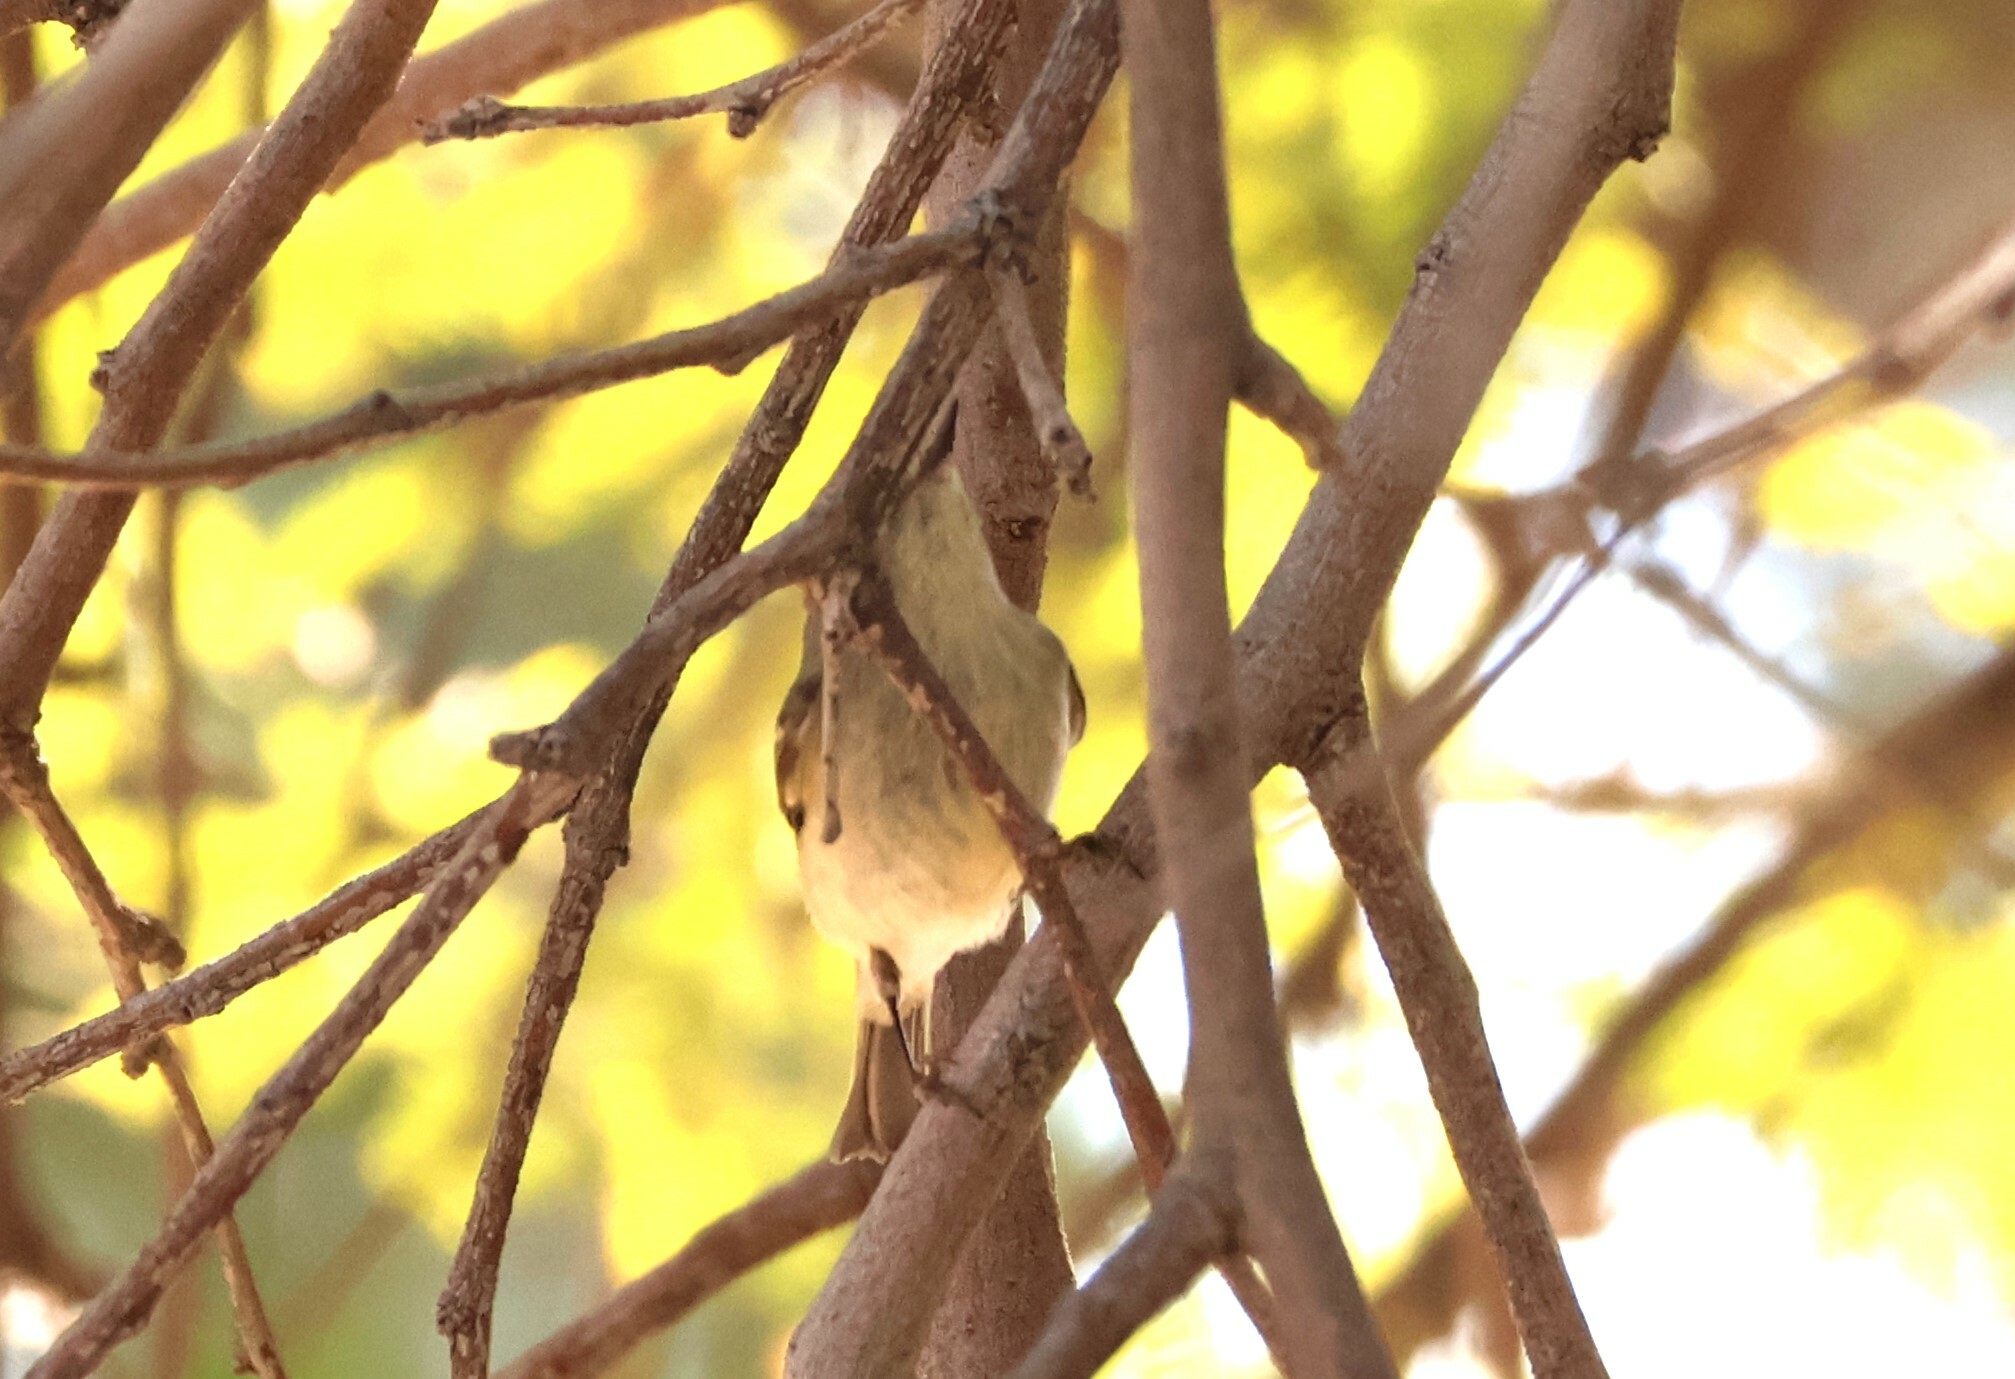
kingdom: Animalia
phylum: Chordata
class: Aves
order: Passeriformes
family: Regulidae
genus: Regulus
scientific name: Regulus calendula
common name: Ruby-crowned kinglet
